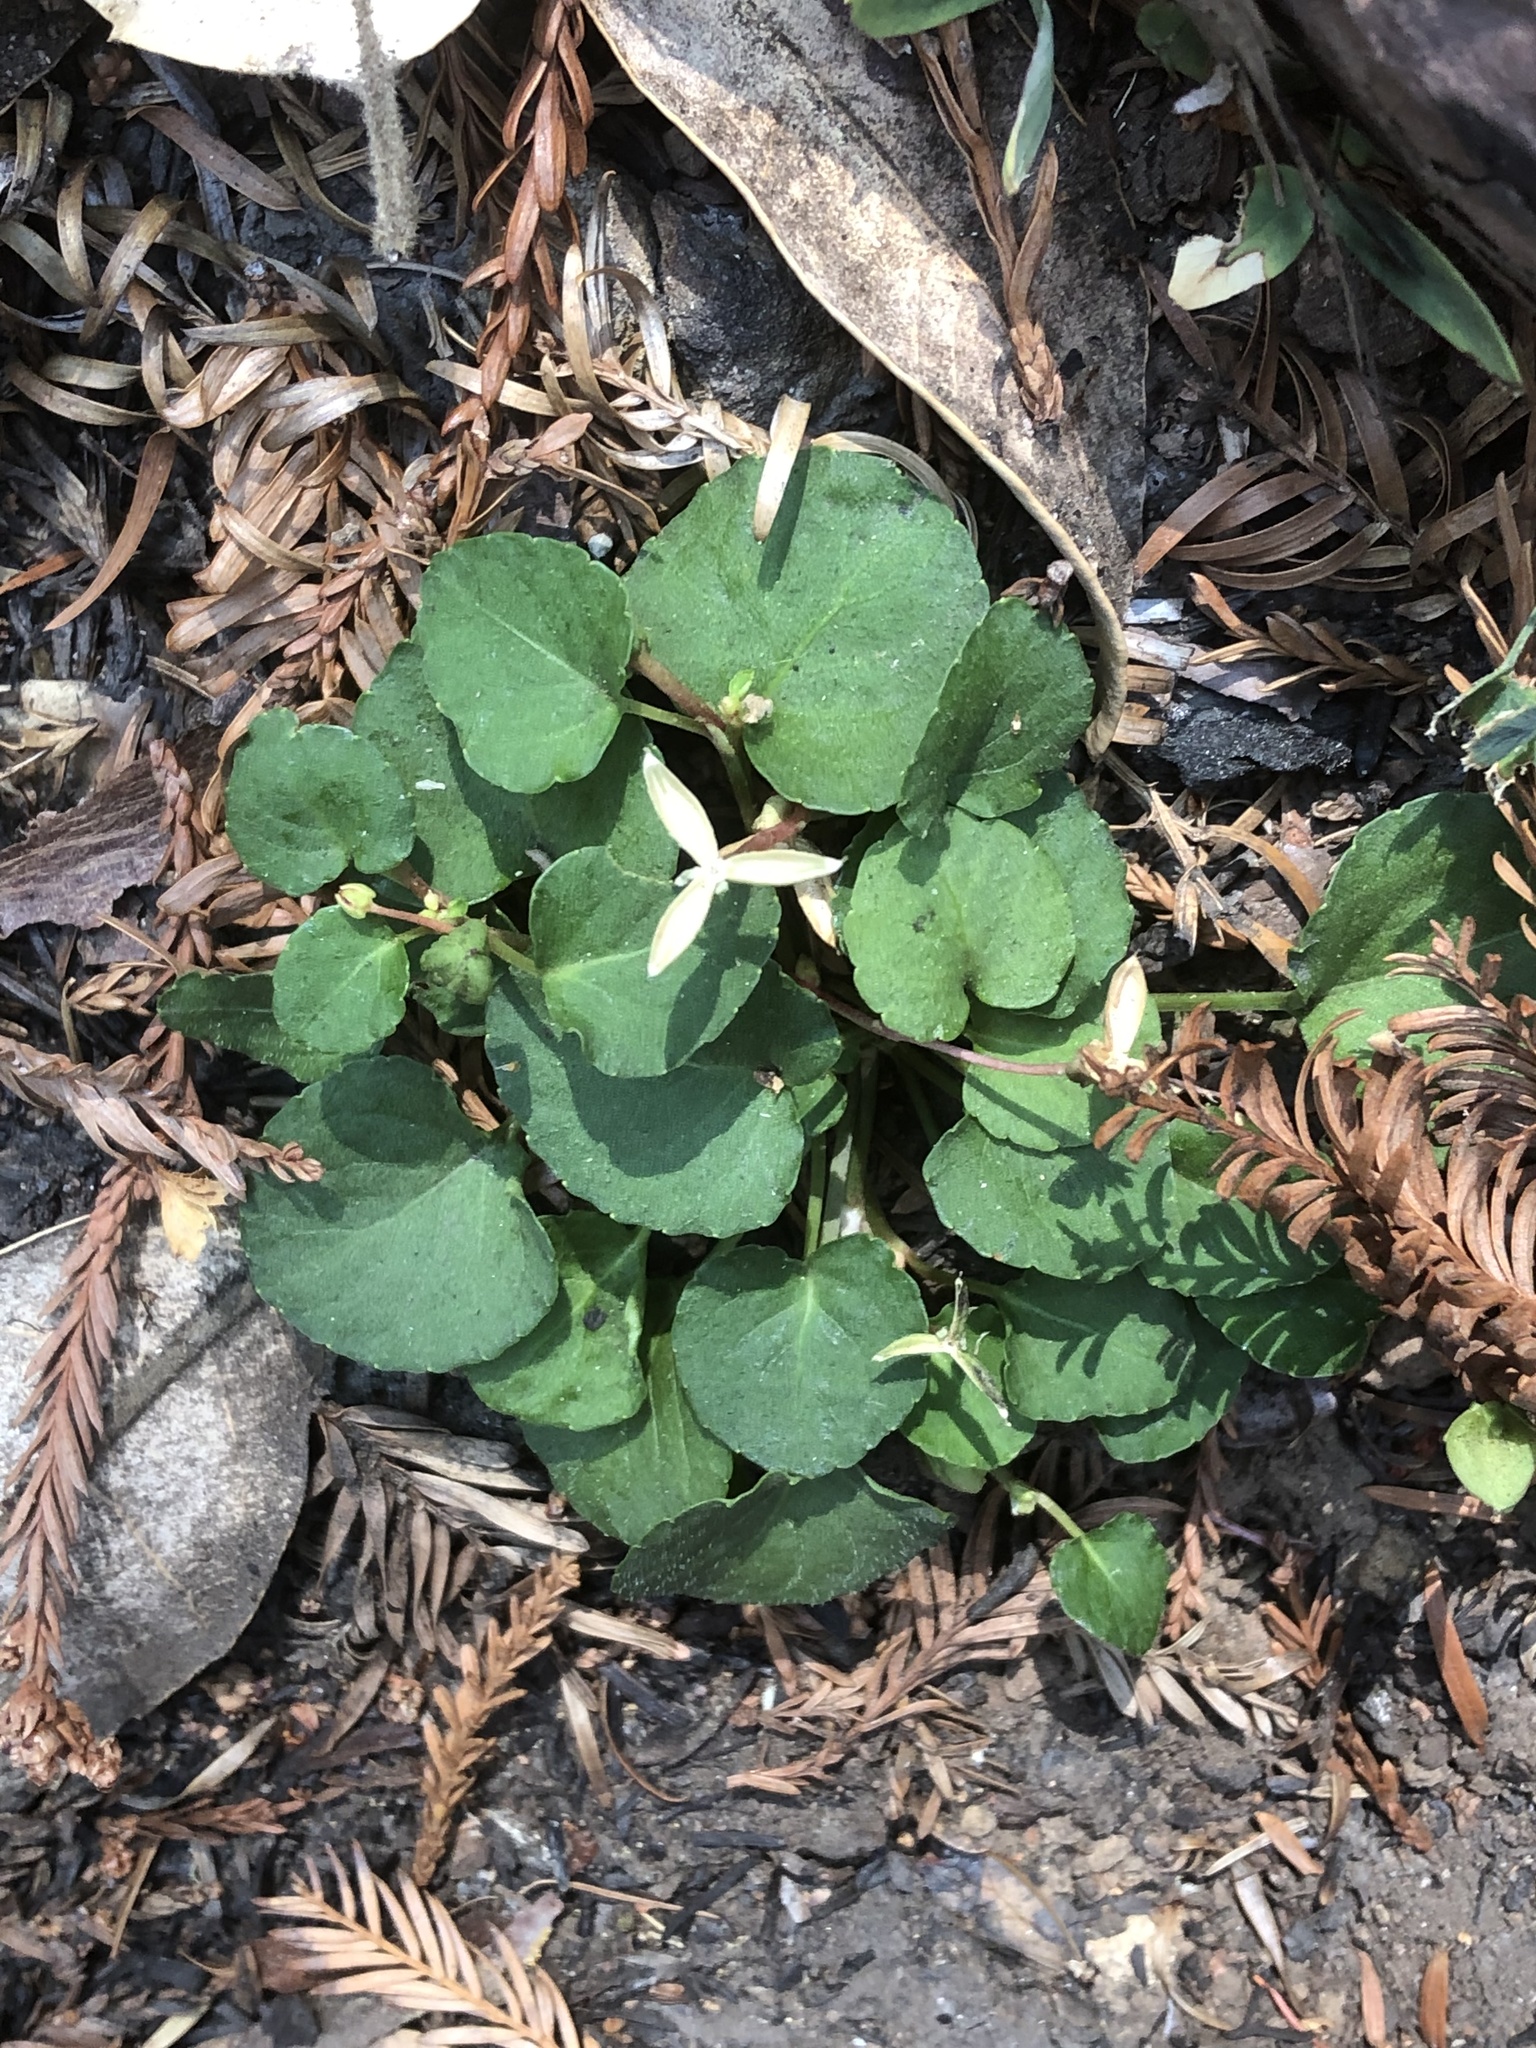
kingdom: Plantae
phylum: Tracheophyta
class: Magnoliopsida
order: Malpighiales
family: Violaceae
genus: Viola
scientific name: Viola sempervirens
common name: Evergreen violet
